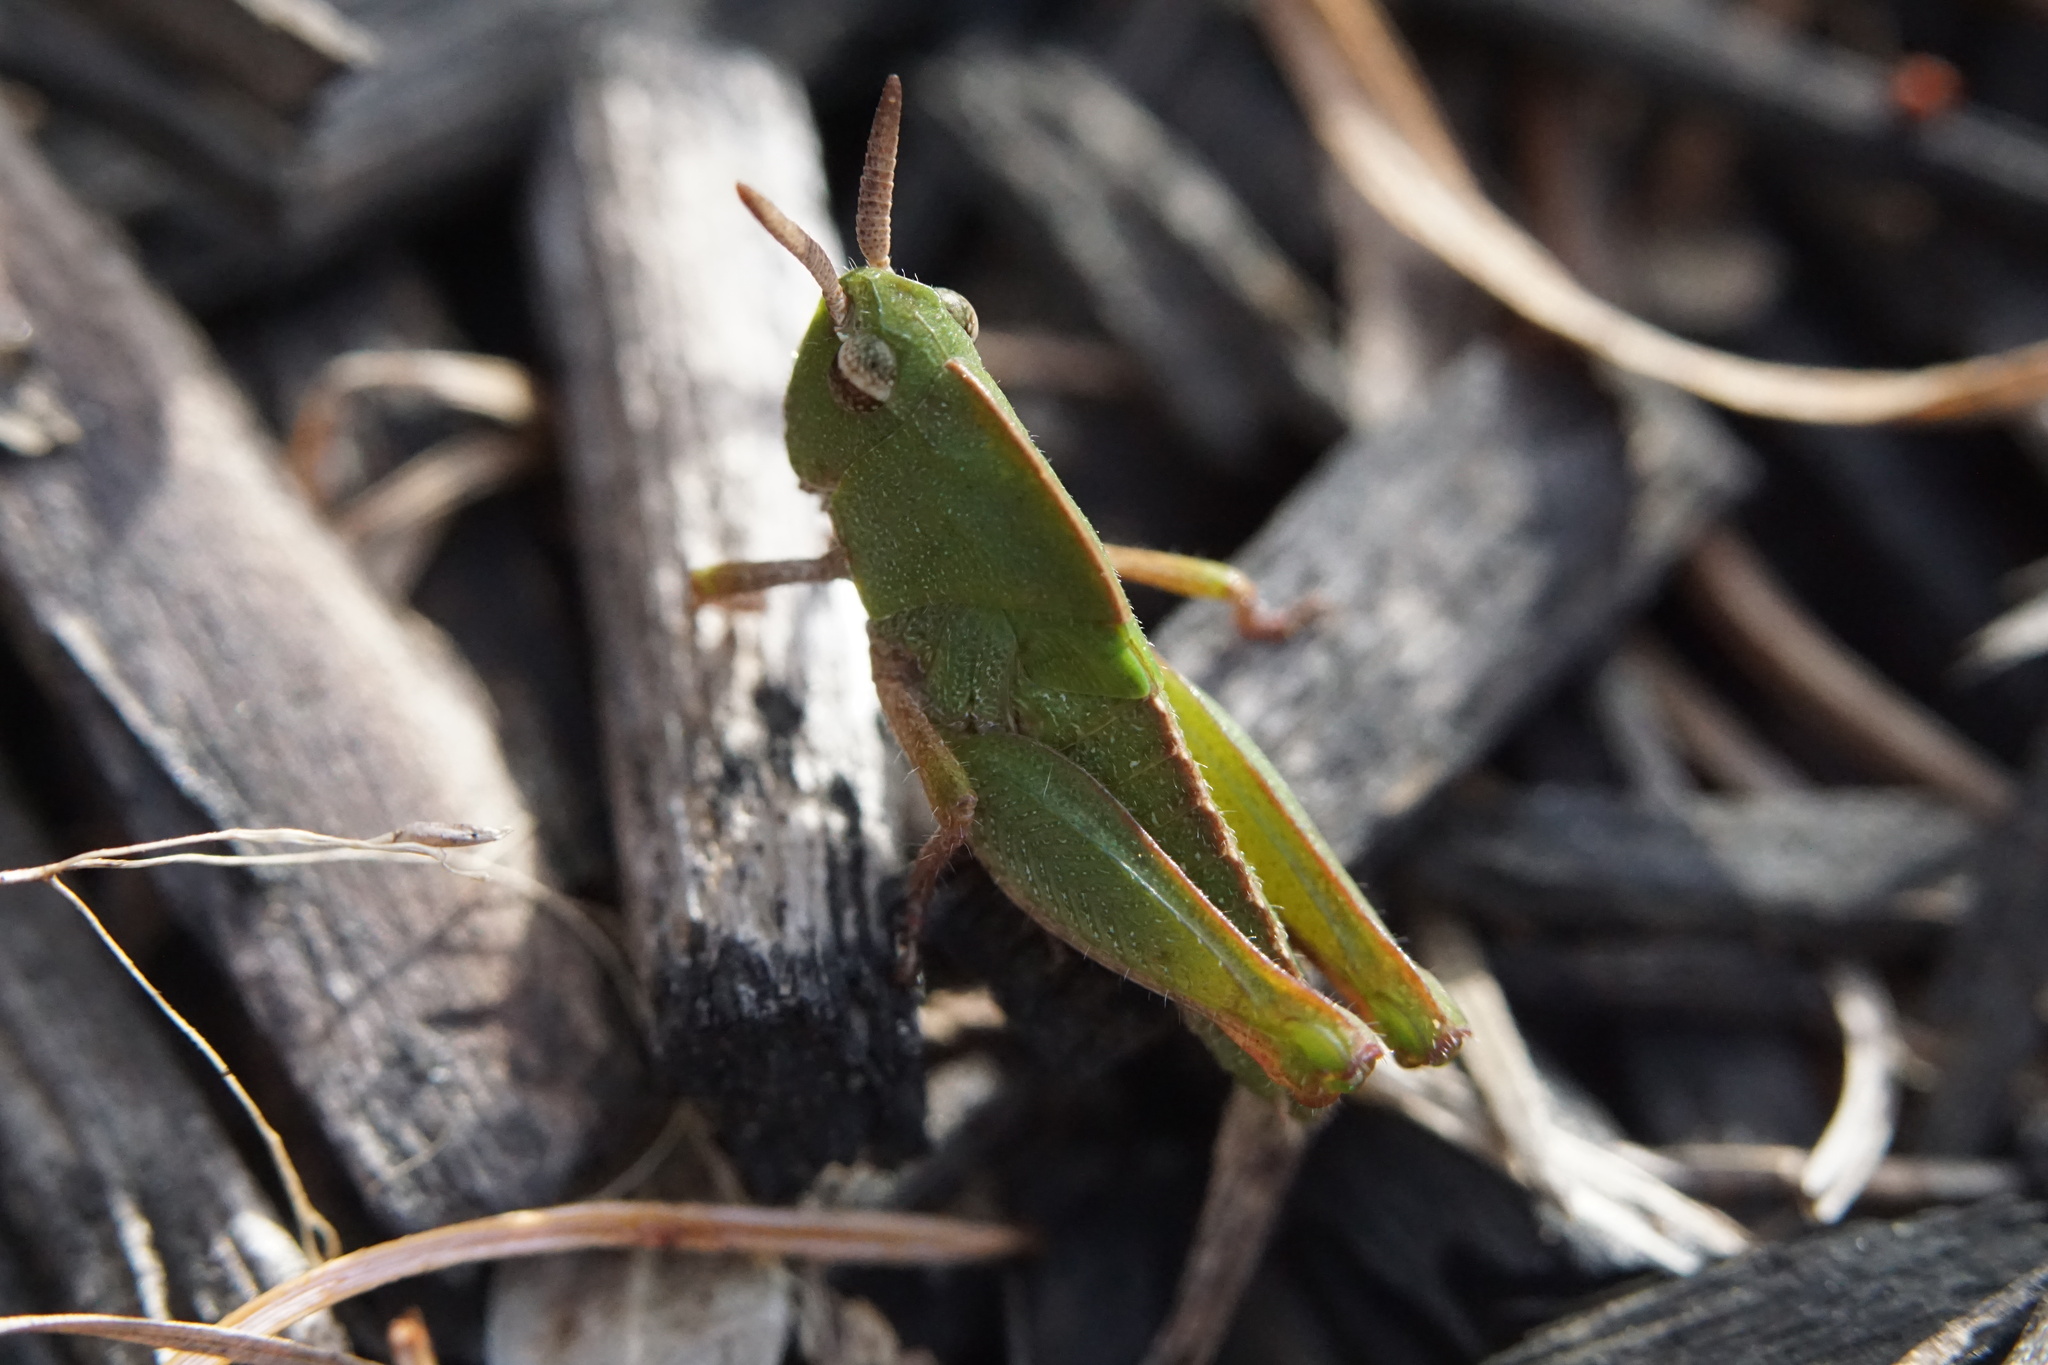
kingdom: Animalia
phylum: Arthropoda
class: Insecta
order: Orthoptera
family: Acrididae
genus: Chortophaga
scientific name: Chortophaga viridifasciata
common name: Green-striped grasshopper
